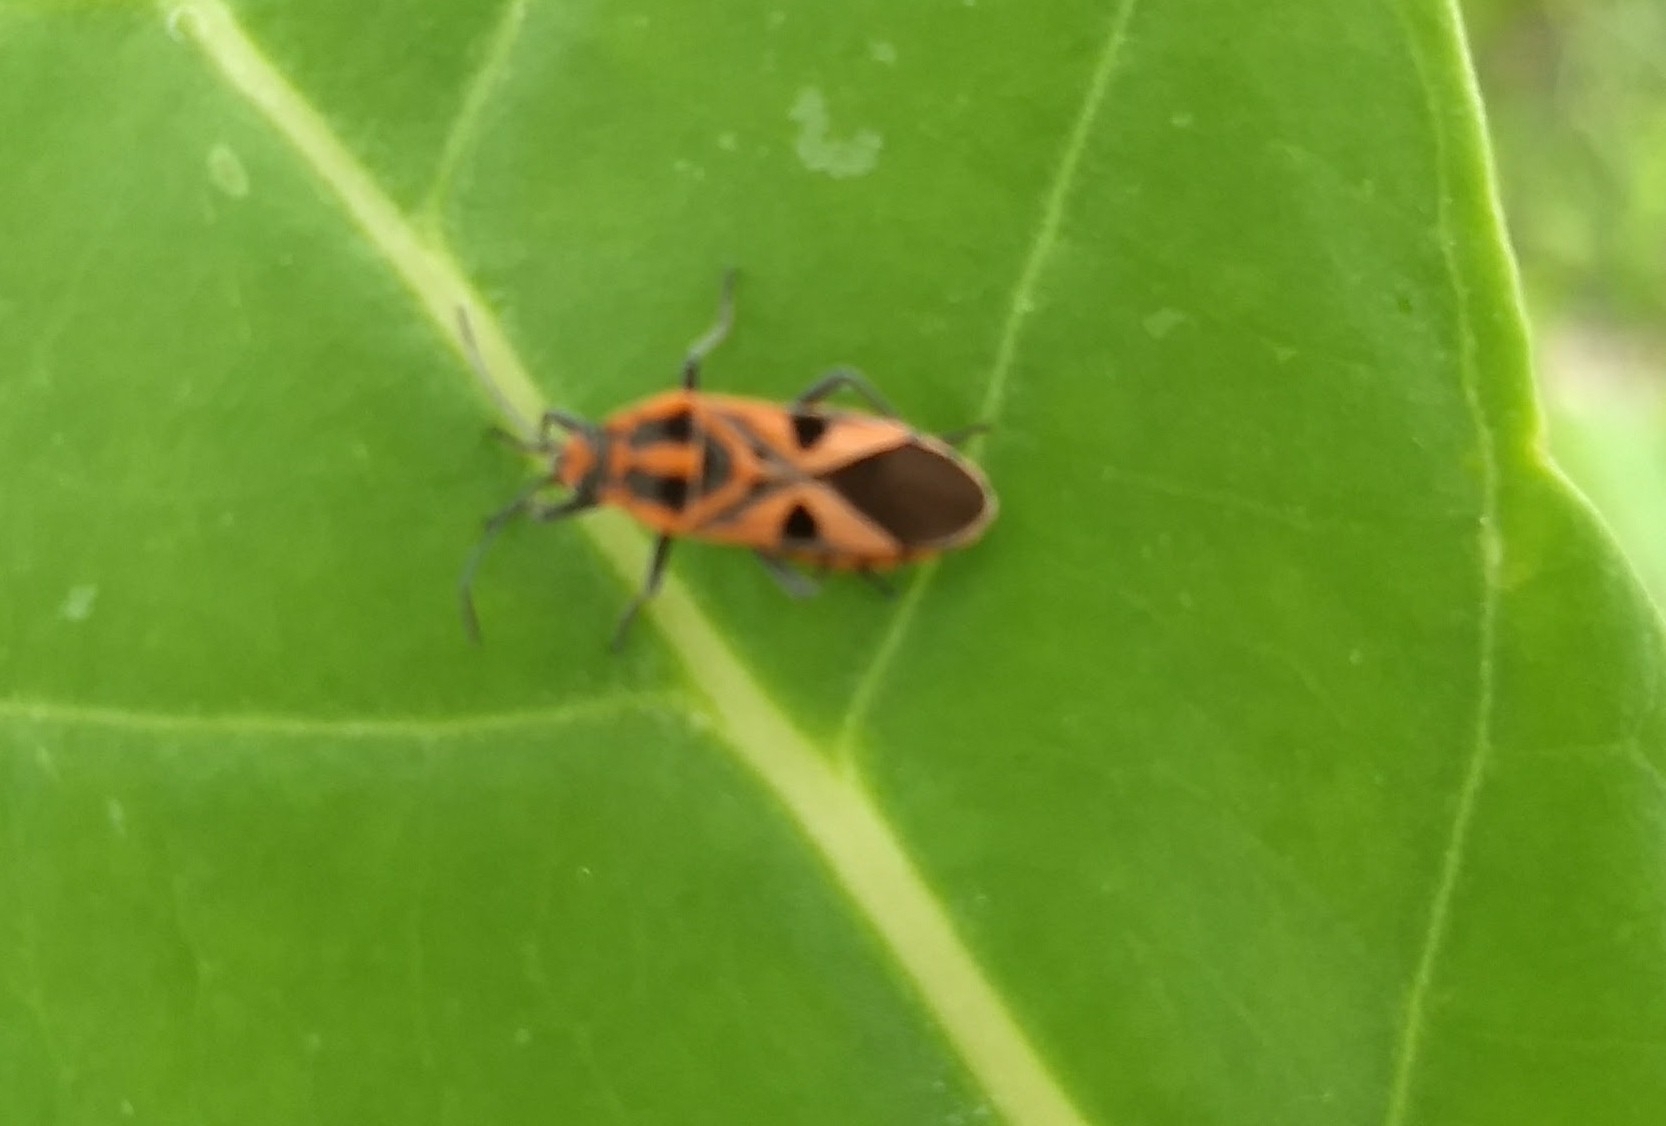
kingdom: Animalia
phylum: Arthropoda
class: Insecta
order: Hemiptera
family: Lygaeidae
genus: Spilostethus
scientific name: Spilostethus hospes
